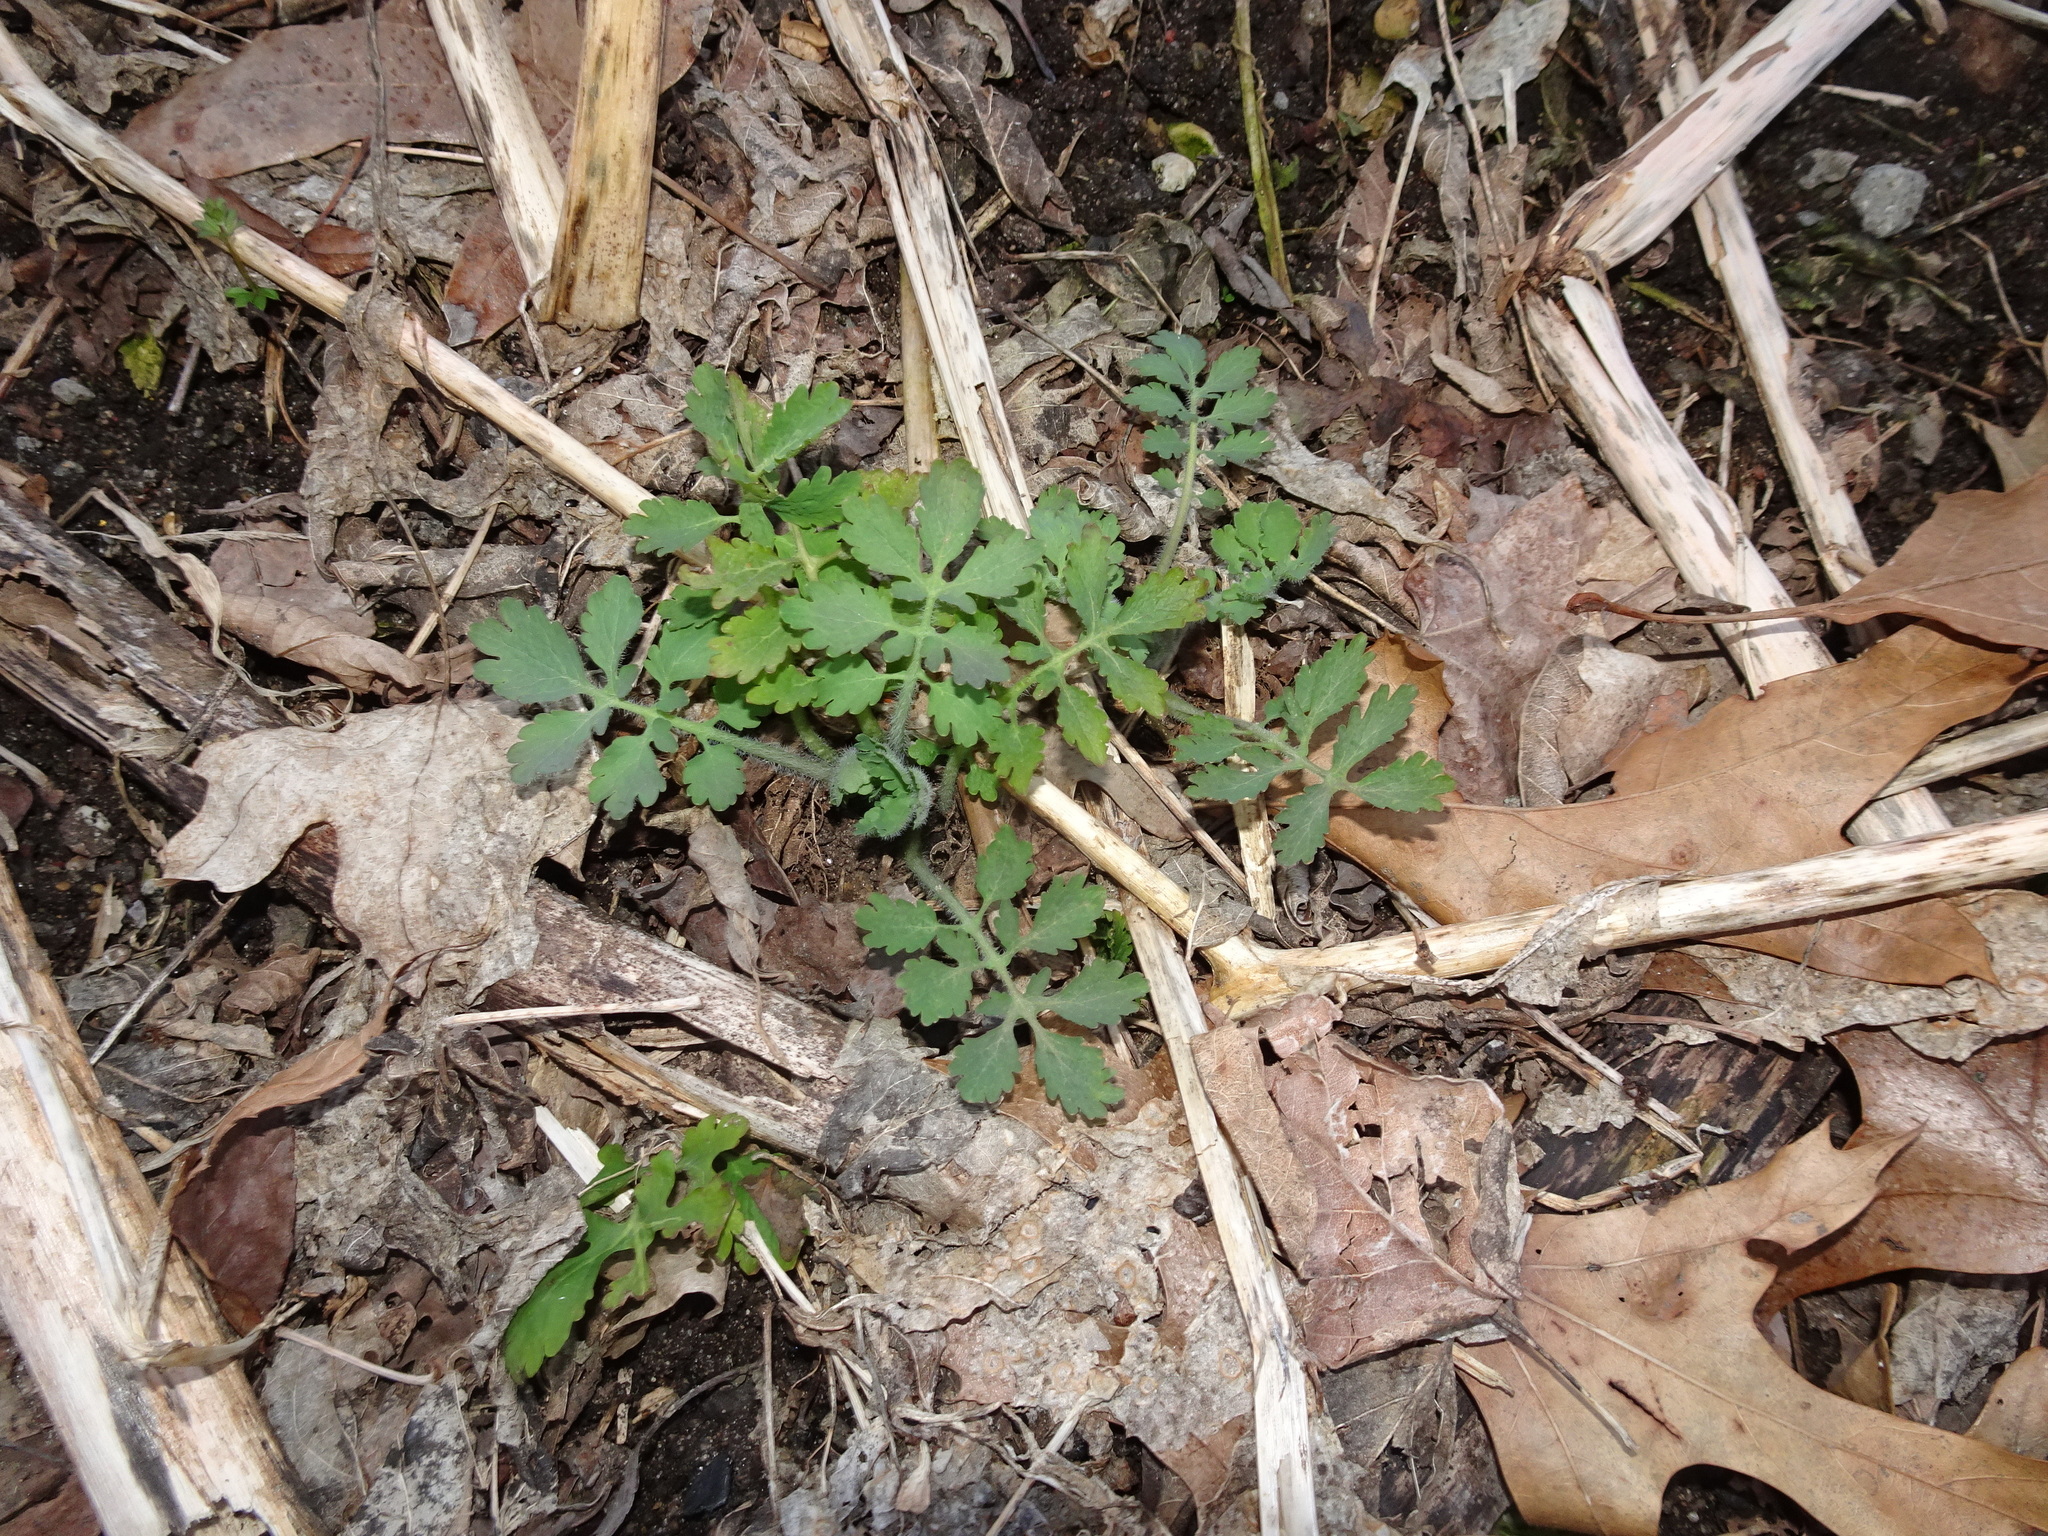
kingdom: Plantae
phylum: Tracheophyta
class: Magnoliopsida
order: Ranunculales
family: Papaveraceae
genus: Chelidonium
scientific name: Chelidonium majus
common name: Greater celandine
